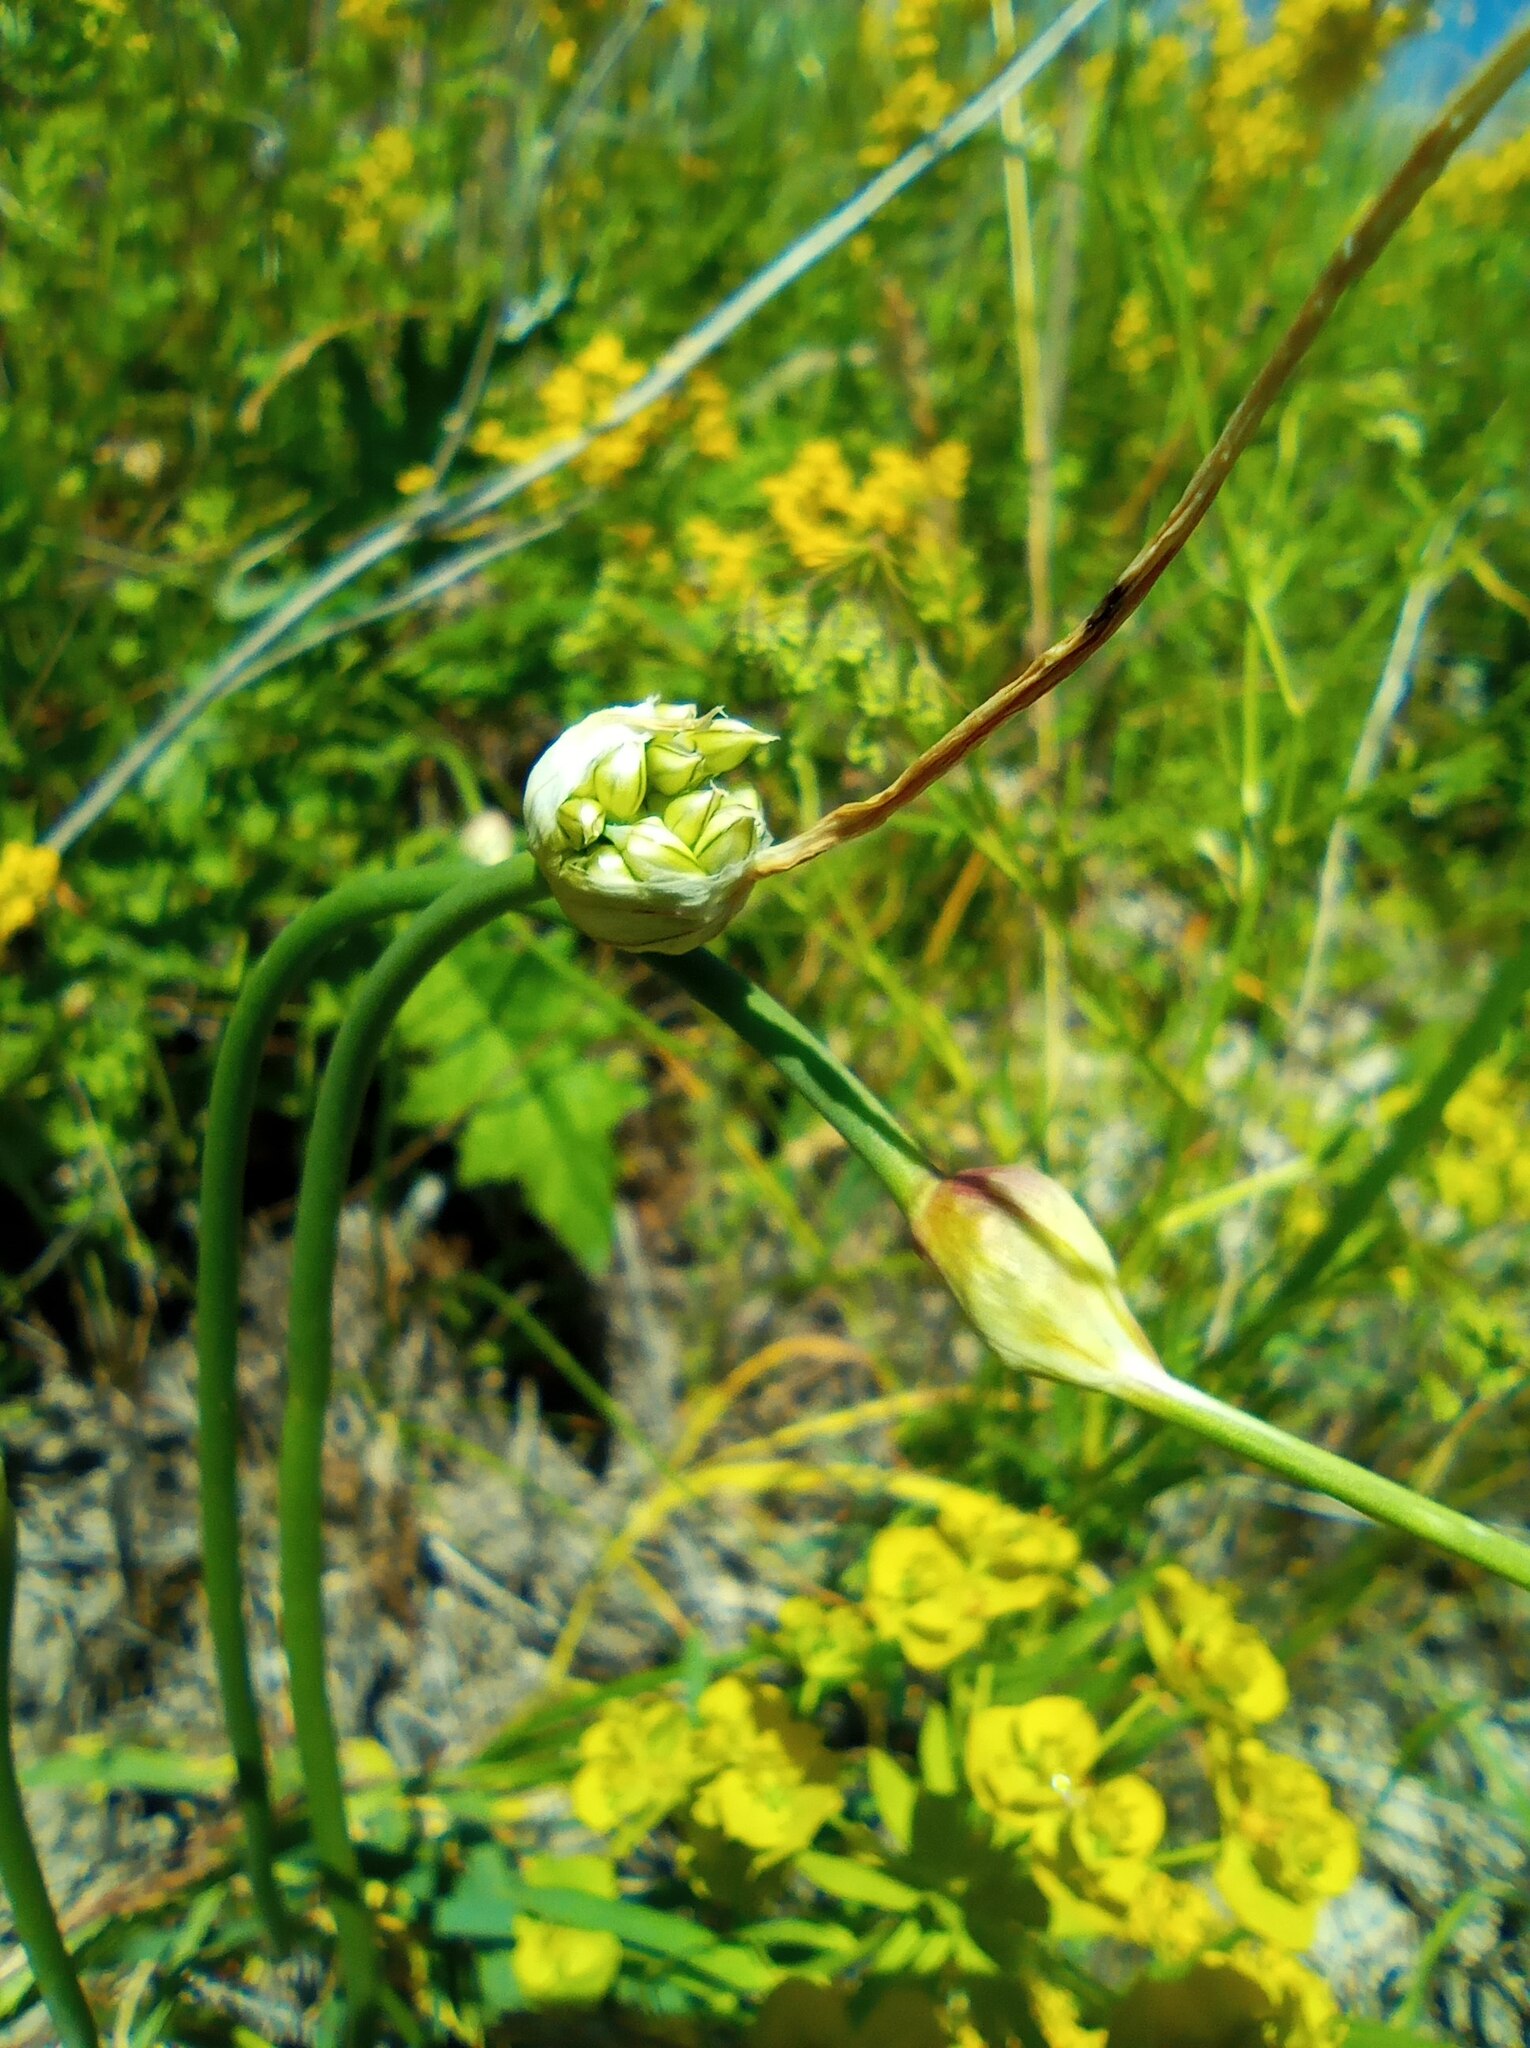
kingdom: Plantae
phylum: Tracheophyta
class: Liliopsida
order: Asparagales
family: Amaryllidaceae
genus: Allium
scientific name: Allium obliquum
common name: Oblique onion
